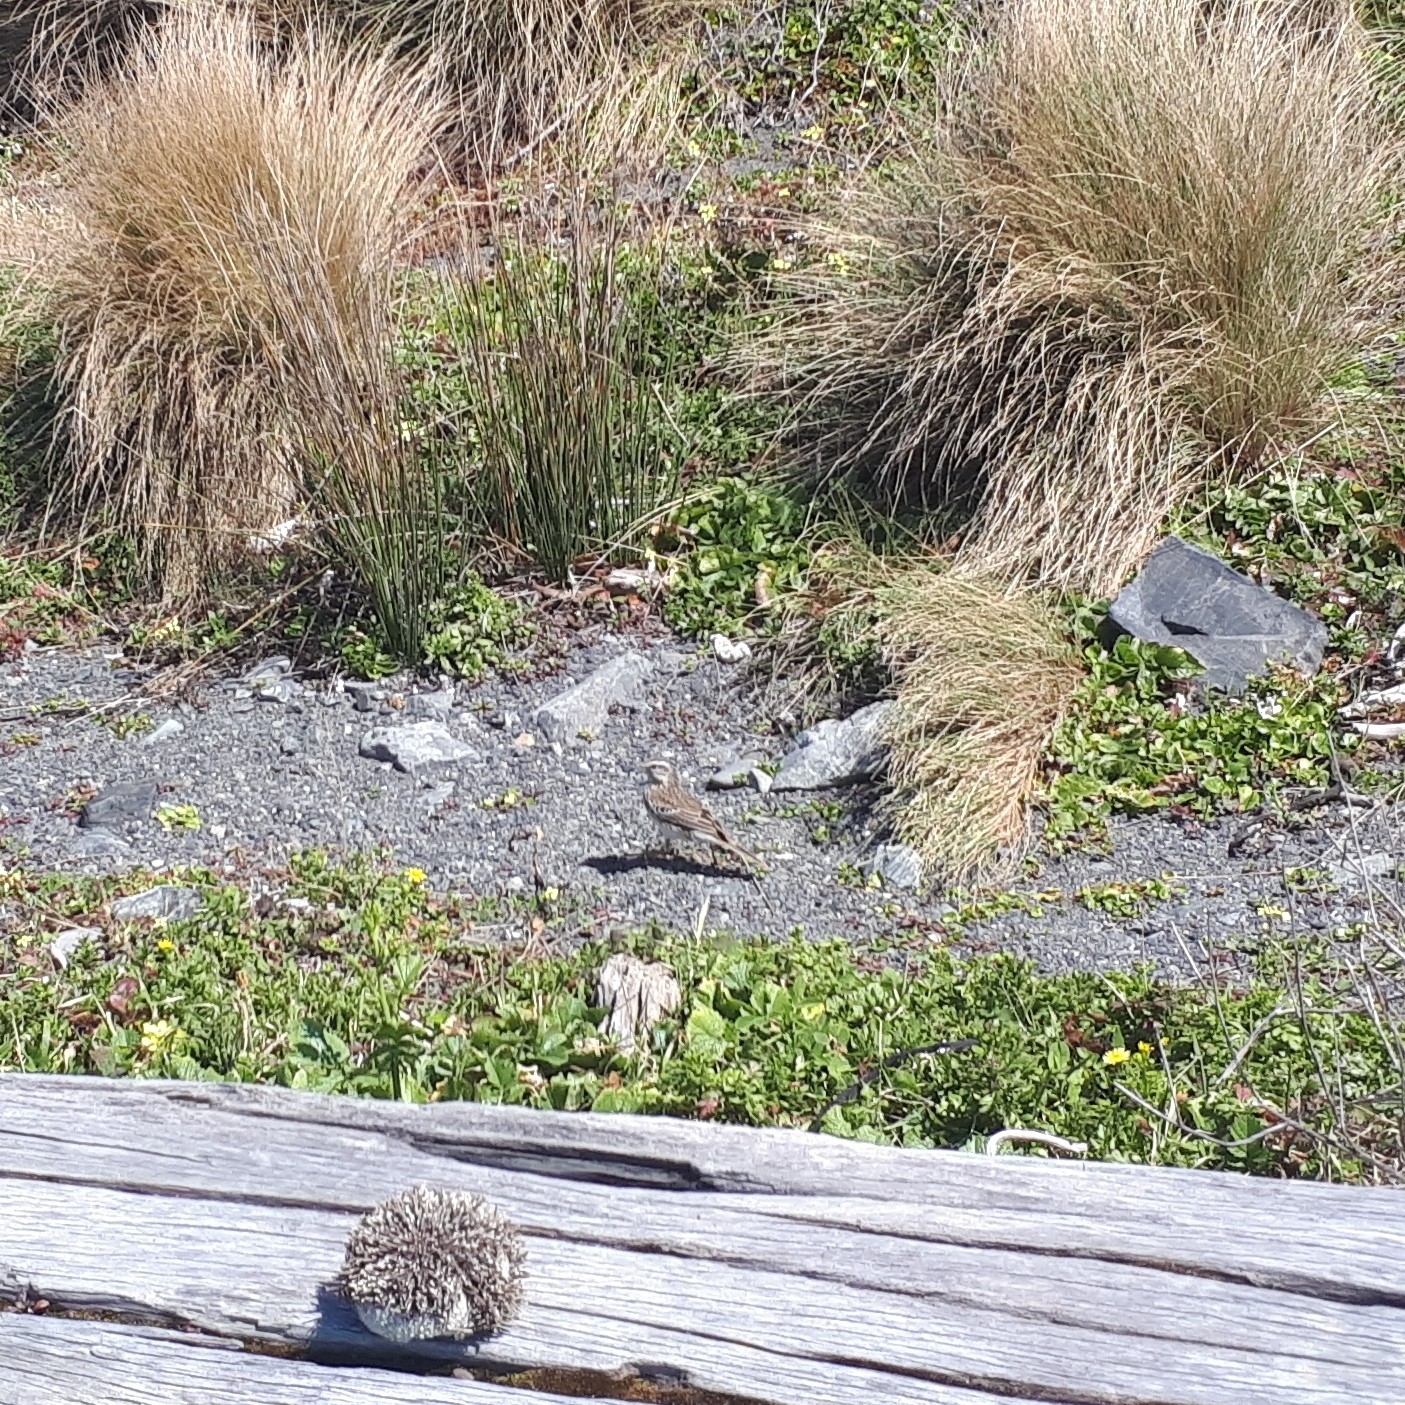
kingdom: Animalia
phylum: Chordata
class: Aves
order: Passeriformes
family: Motacillidae
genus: Anthus
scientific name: Anthus novaeseelandiae
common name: New zealand pipit
